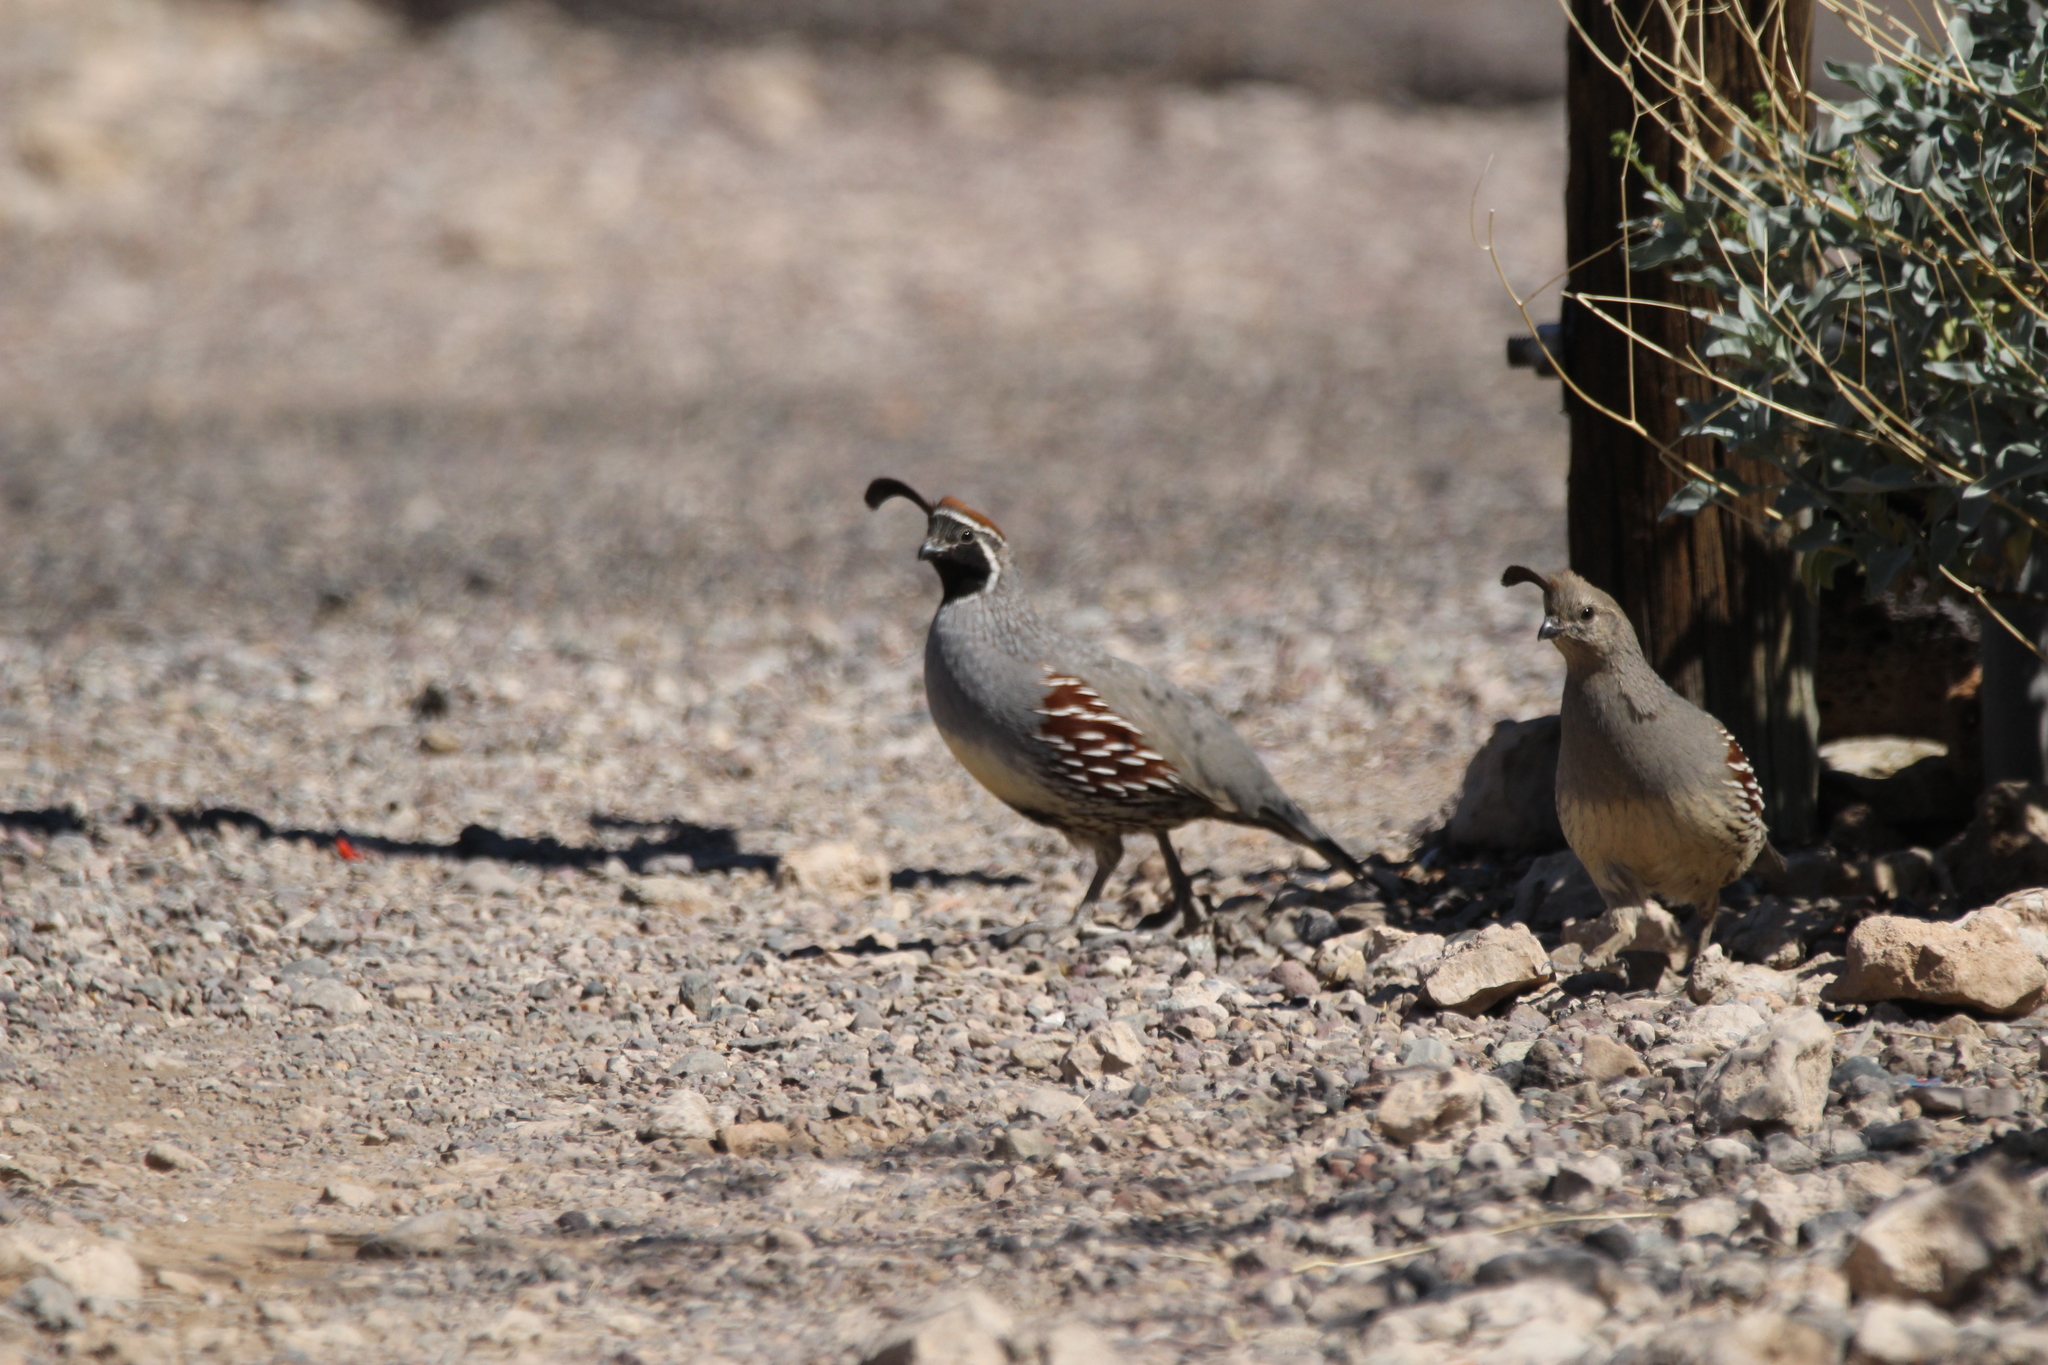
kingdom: Animalia
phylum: Chordata
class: Aves
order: Galliformes
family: Odontophoridae
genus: Callipepla
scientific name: Callipepla gambelii
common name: Gambel's quail
